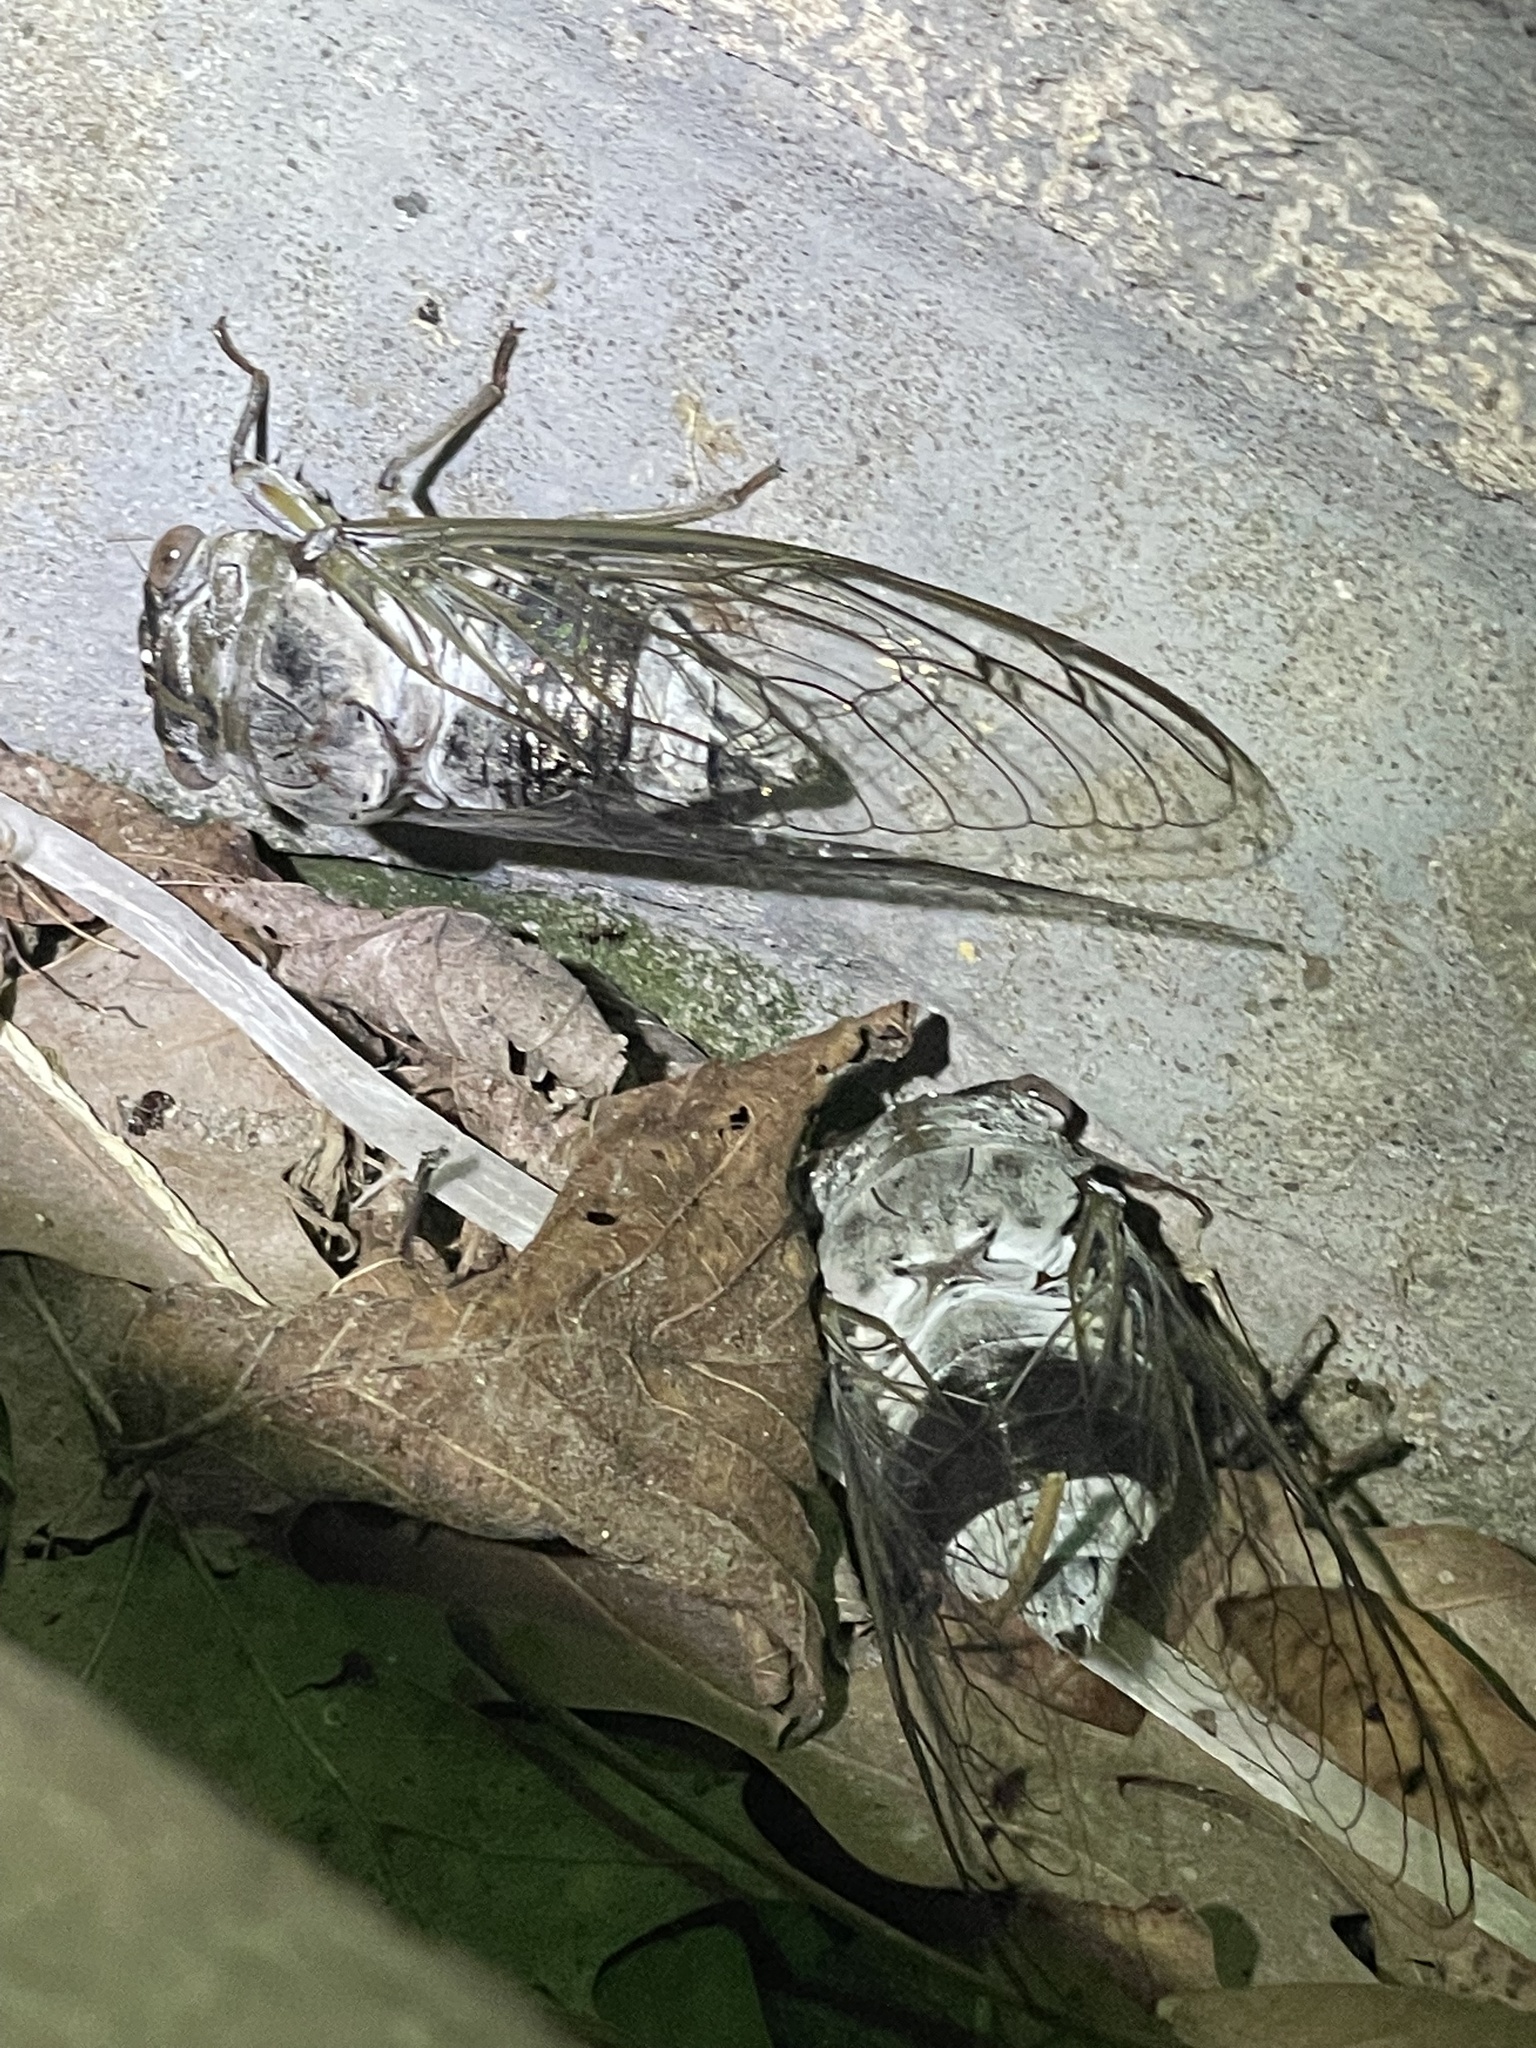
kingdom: Animalia
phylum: Arthropoda
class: Insecta
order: Hemiptera
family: Cicadidae
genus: Diceroprocta
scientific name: Diceroprocta grossa
